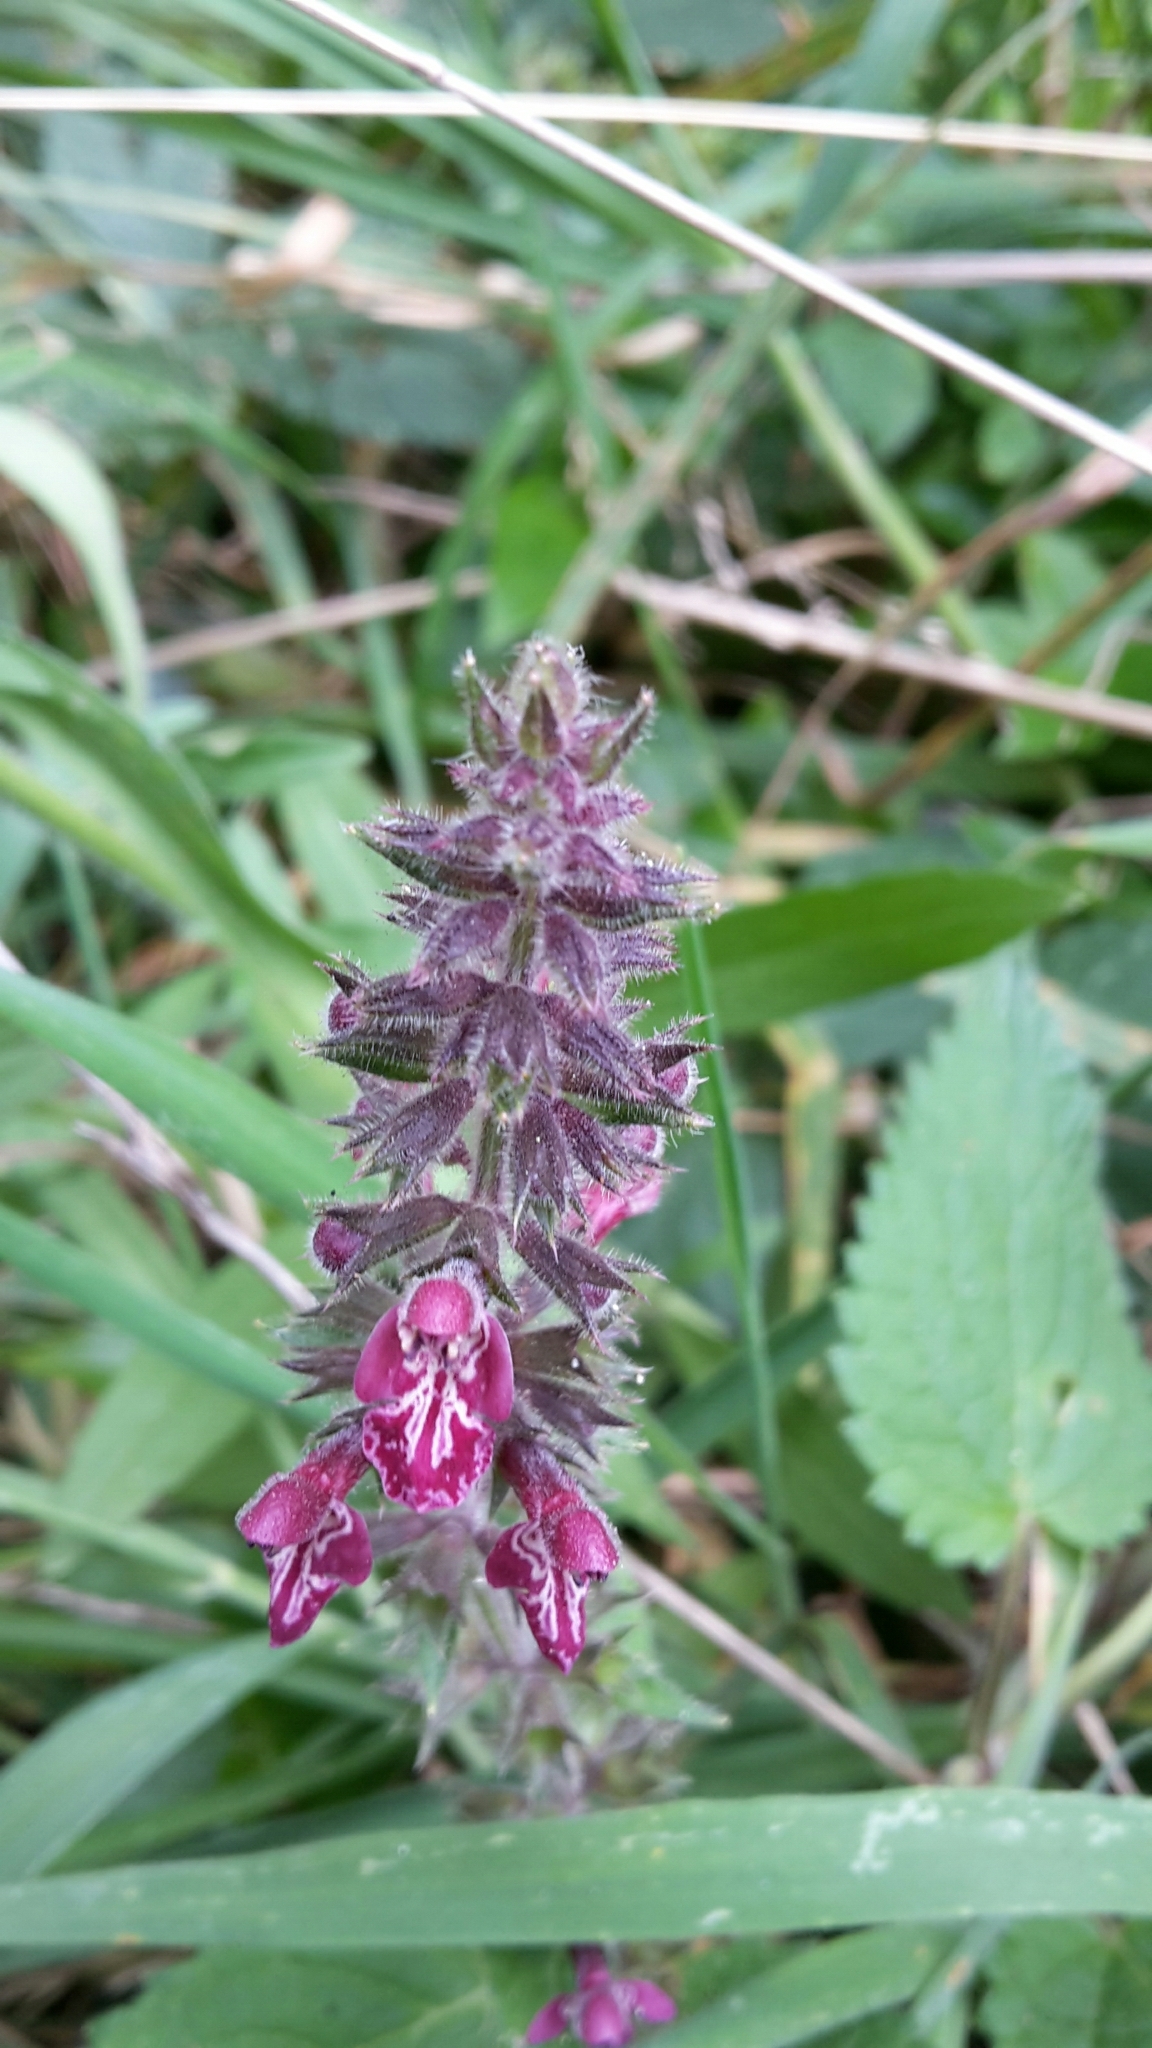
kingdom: Plantae
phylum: Tracheophyta
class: Magnoliopsida
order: Lamiales
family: Lamiaceae
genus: Stachys
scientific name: Stachys sylvatica
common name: Hedge woundwort
